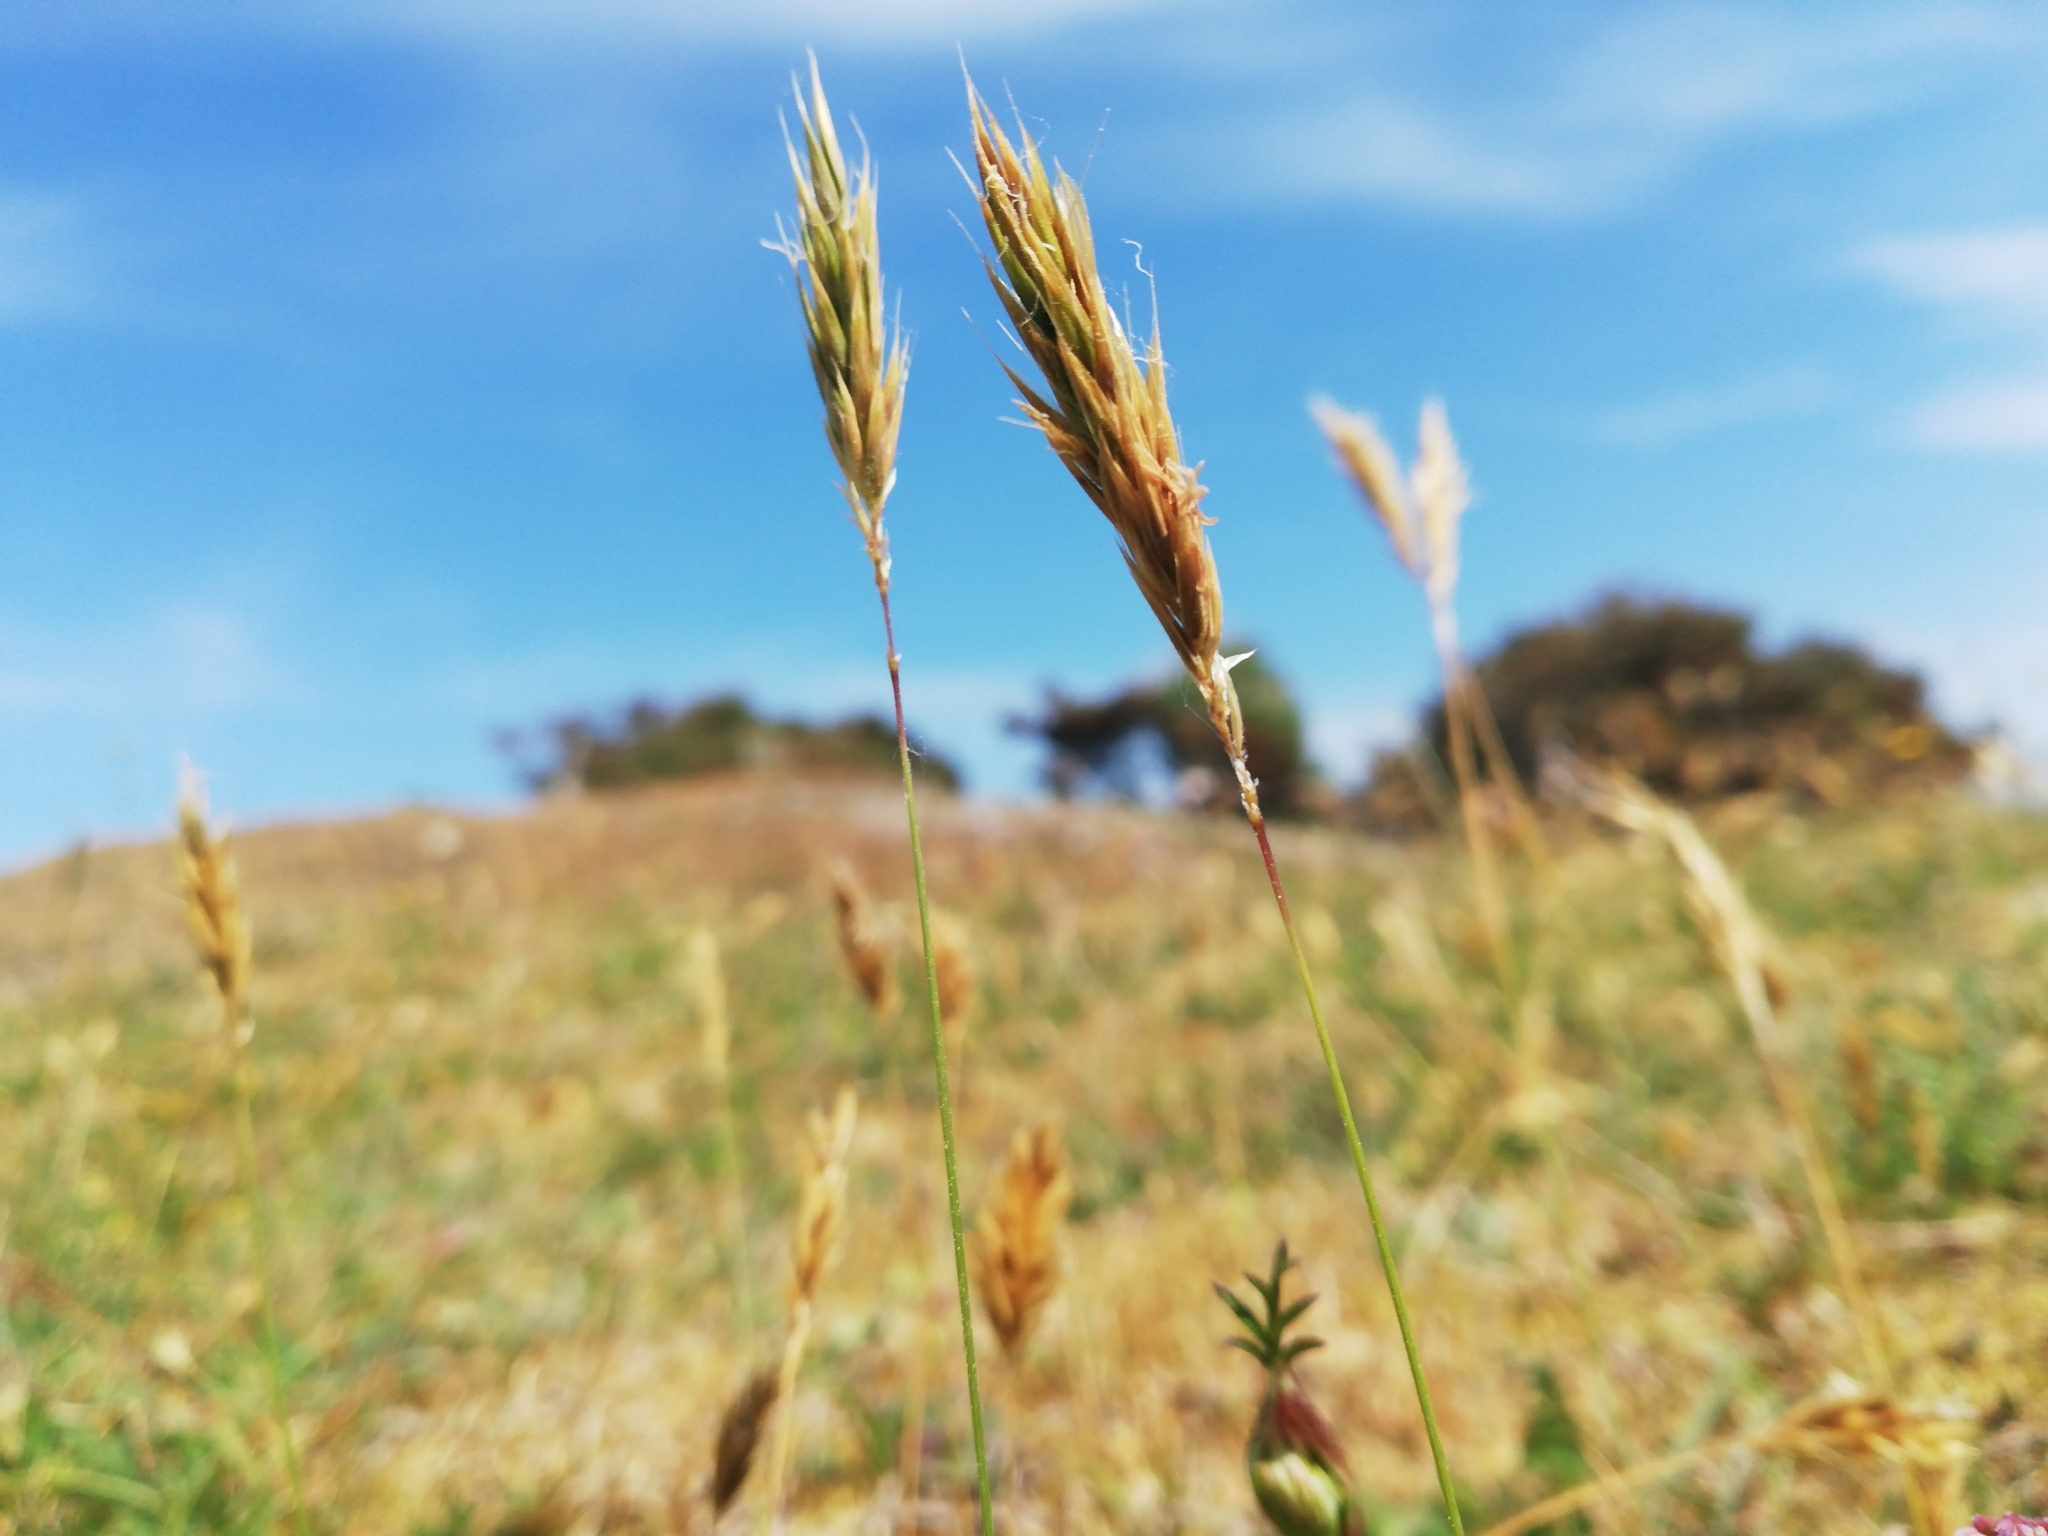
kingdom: Plantae
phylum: Tracheophyta
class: Liliopsida
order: Poales
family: Poaceae
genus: Anthoxanthum
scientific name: Anthoxanthum odoratum
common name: Sweet vernalgrass
